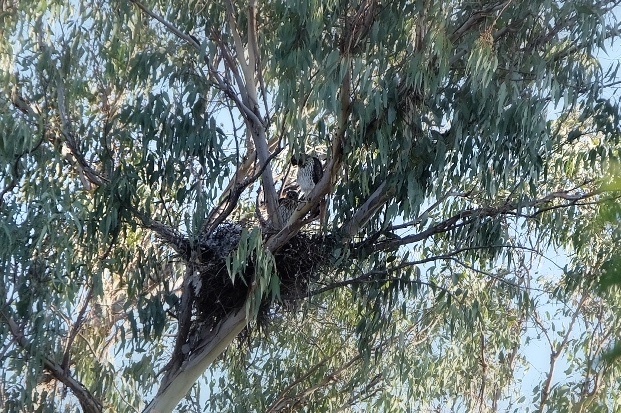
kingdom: Animalia
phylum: Chordata
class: Aves
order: Accipitriformes
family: Accipitridae
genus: Accipiter
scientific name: Accipiter cooperii
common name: Cooper's hawk
